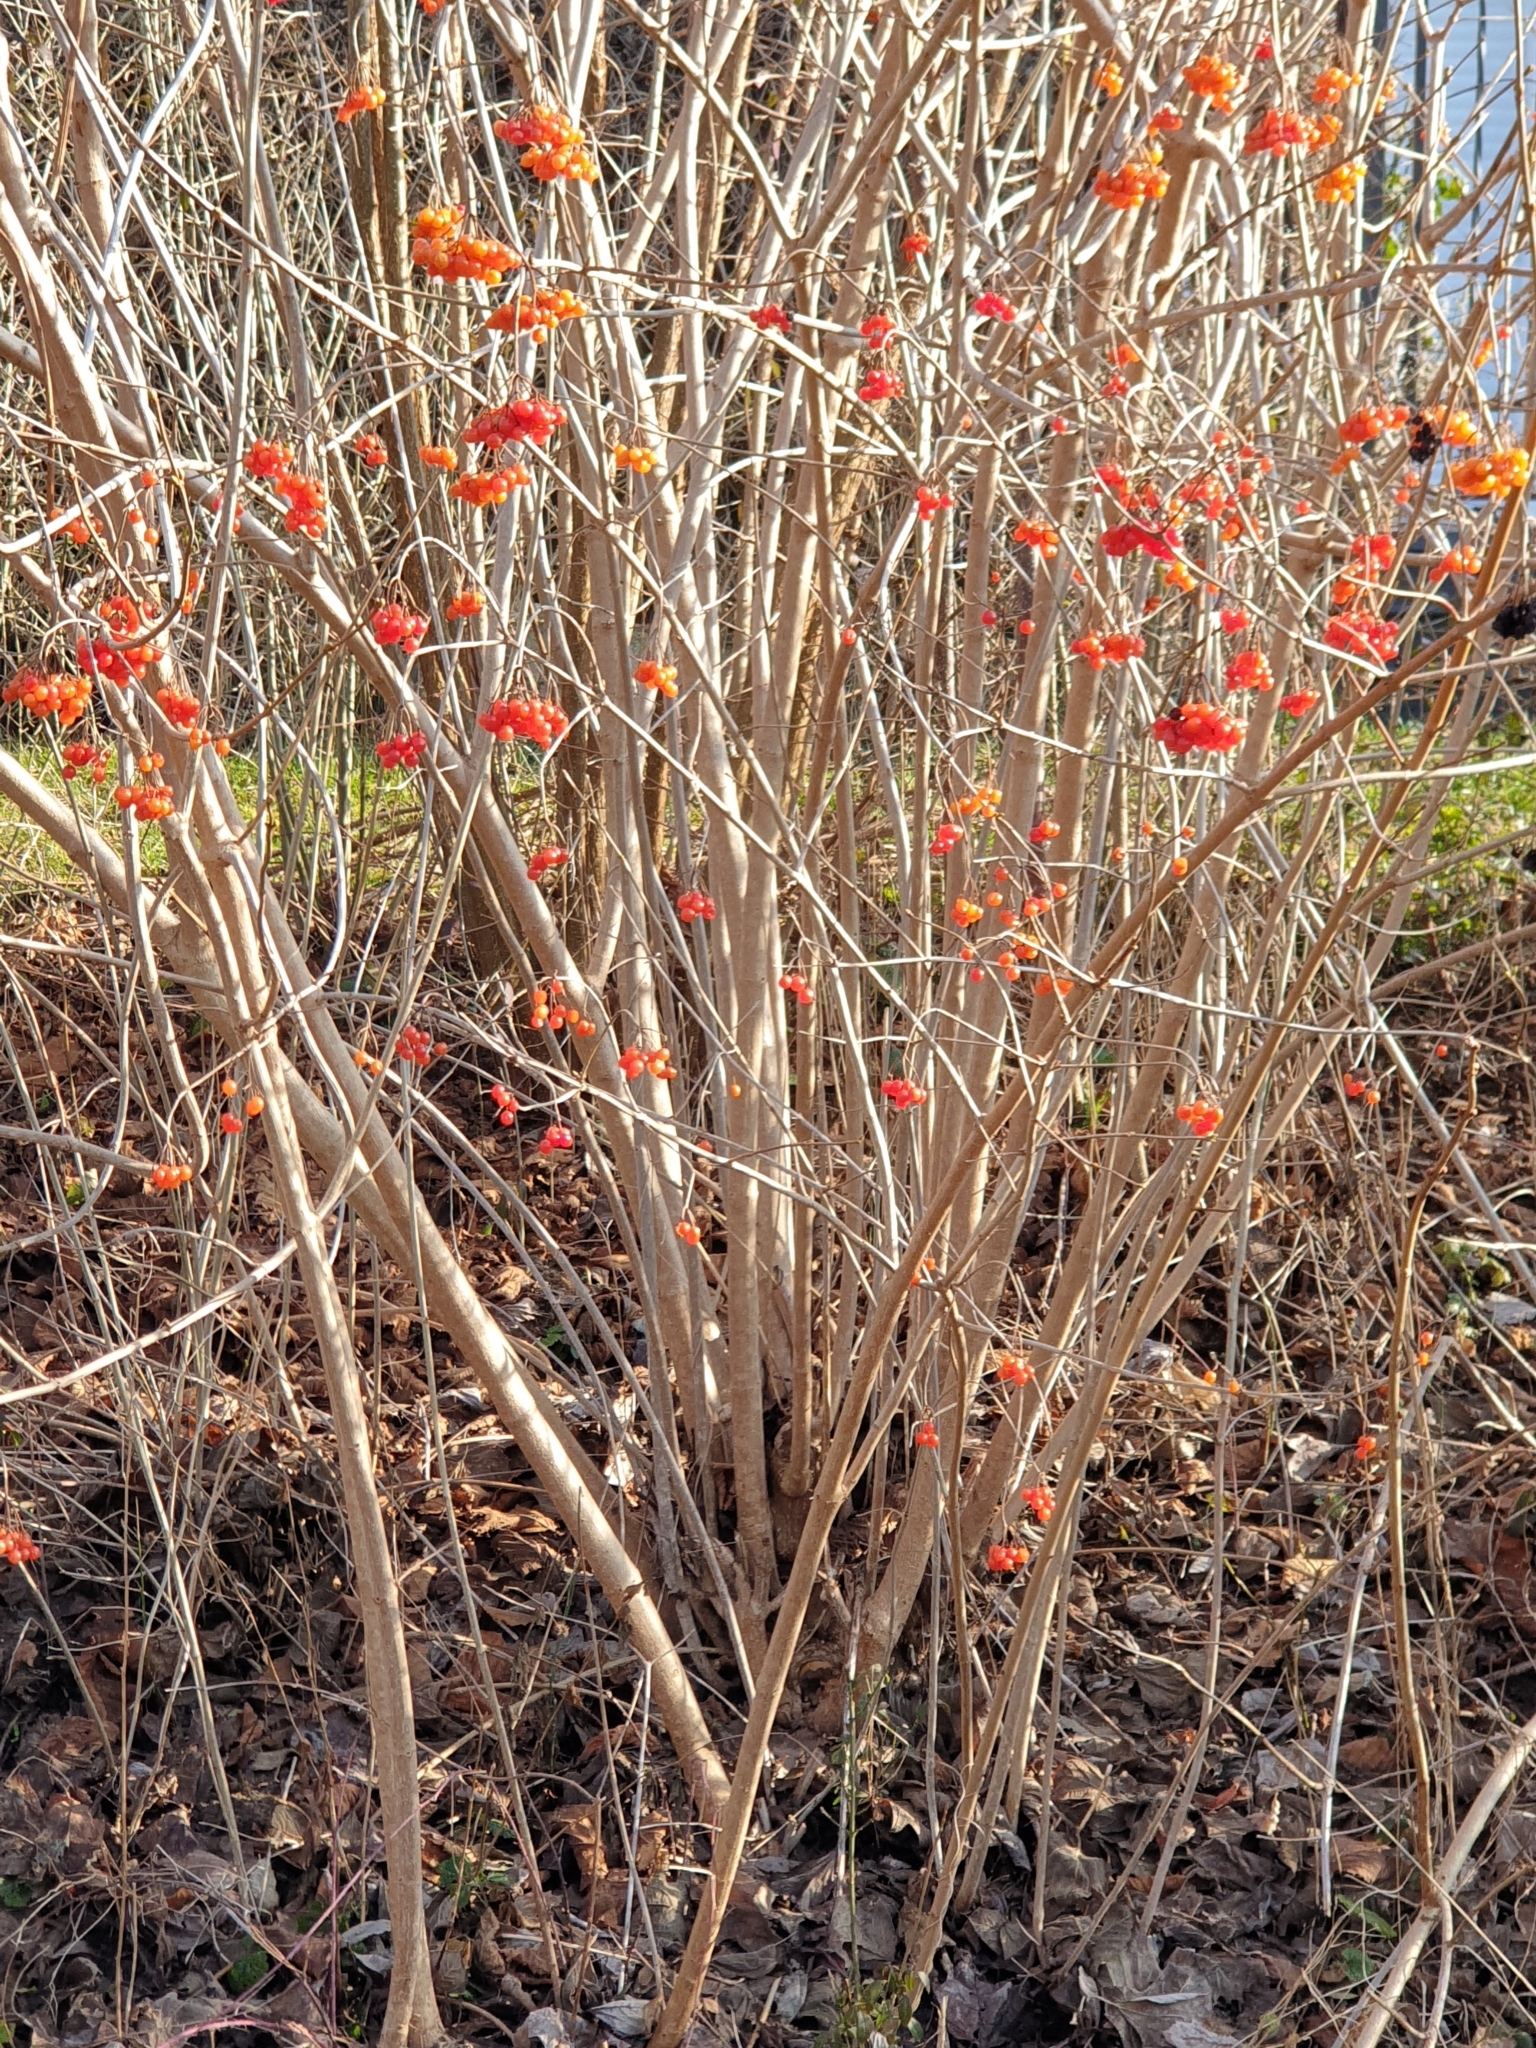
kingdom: Plantae
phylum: Tracheophyta
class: Magnoliopsida
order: Dipsacales
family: Viburnaceae
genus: Viburnum
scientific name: Viburnum opulus
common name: Guelder-rose
